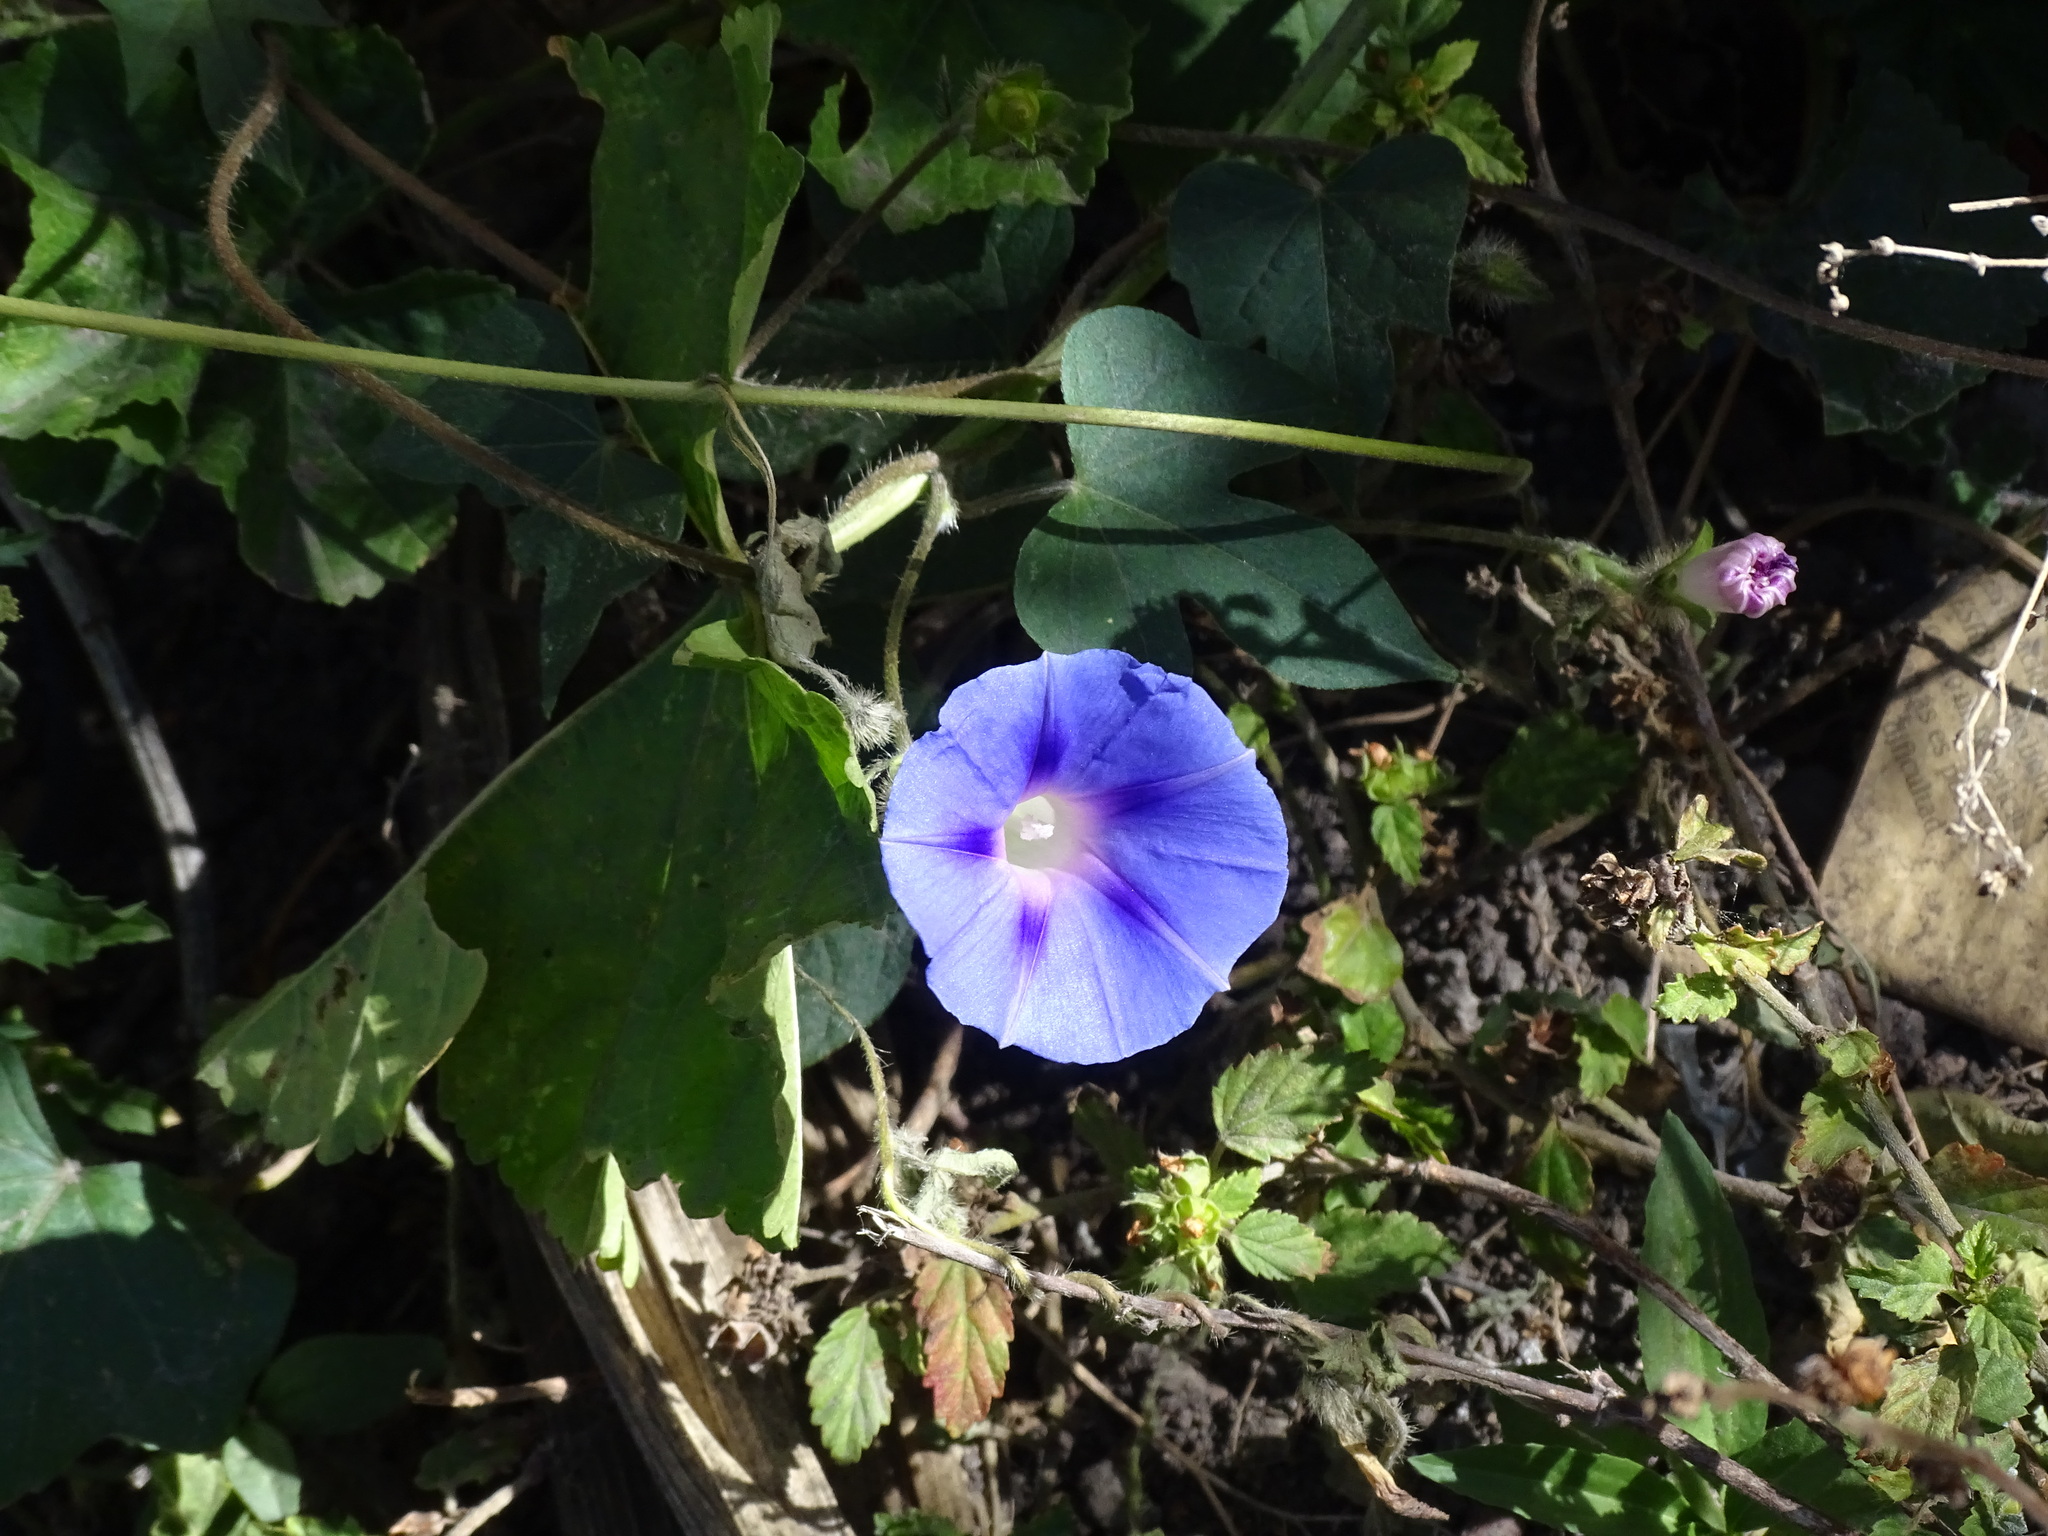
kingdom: Plantae
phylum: Tracheophyta
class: Magnoliopsida
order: Solanales
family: Convolvulaceae
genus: Ipomoea
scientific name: Ipomoea purpurea
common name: Common morning-glory
